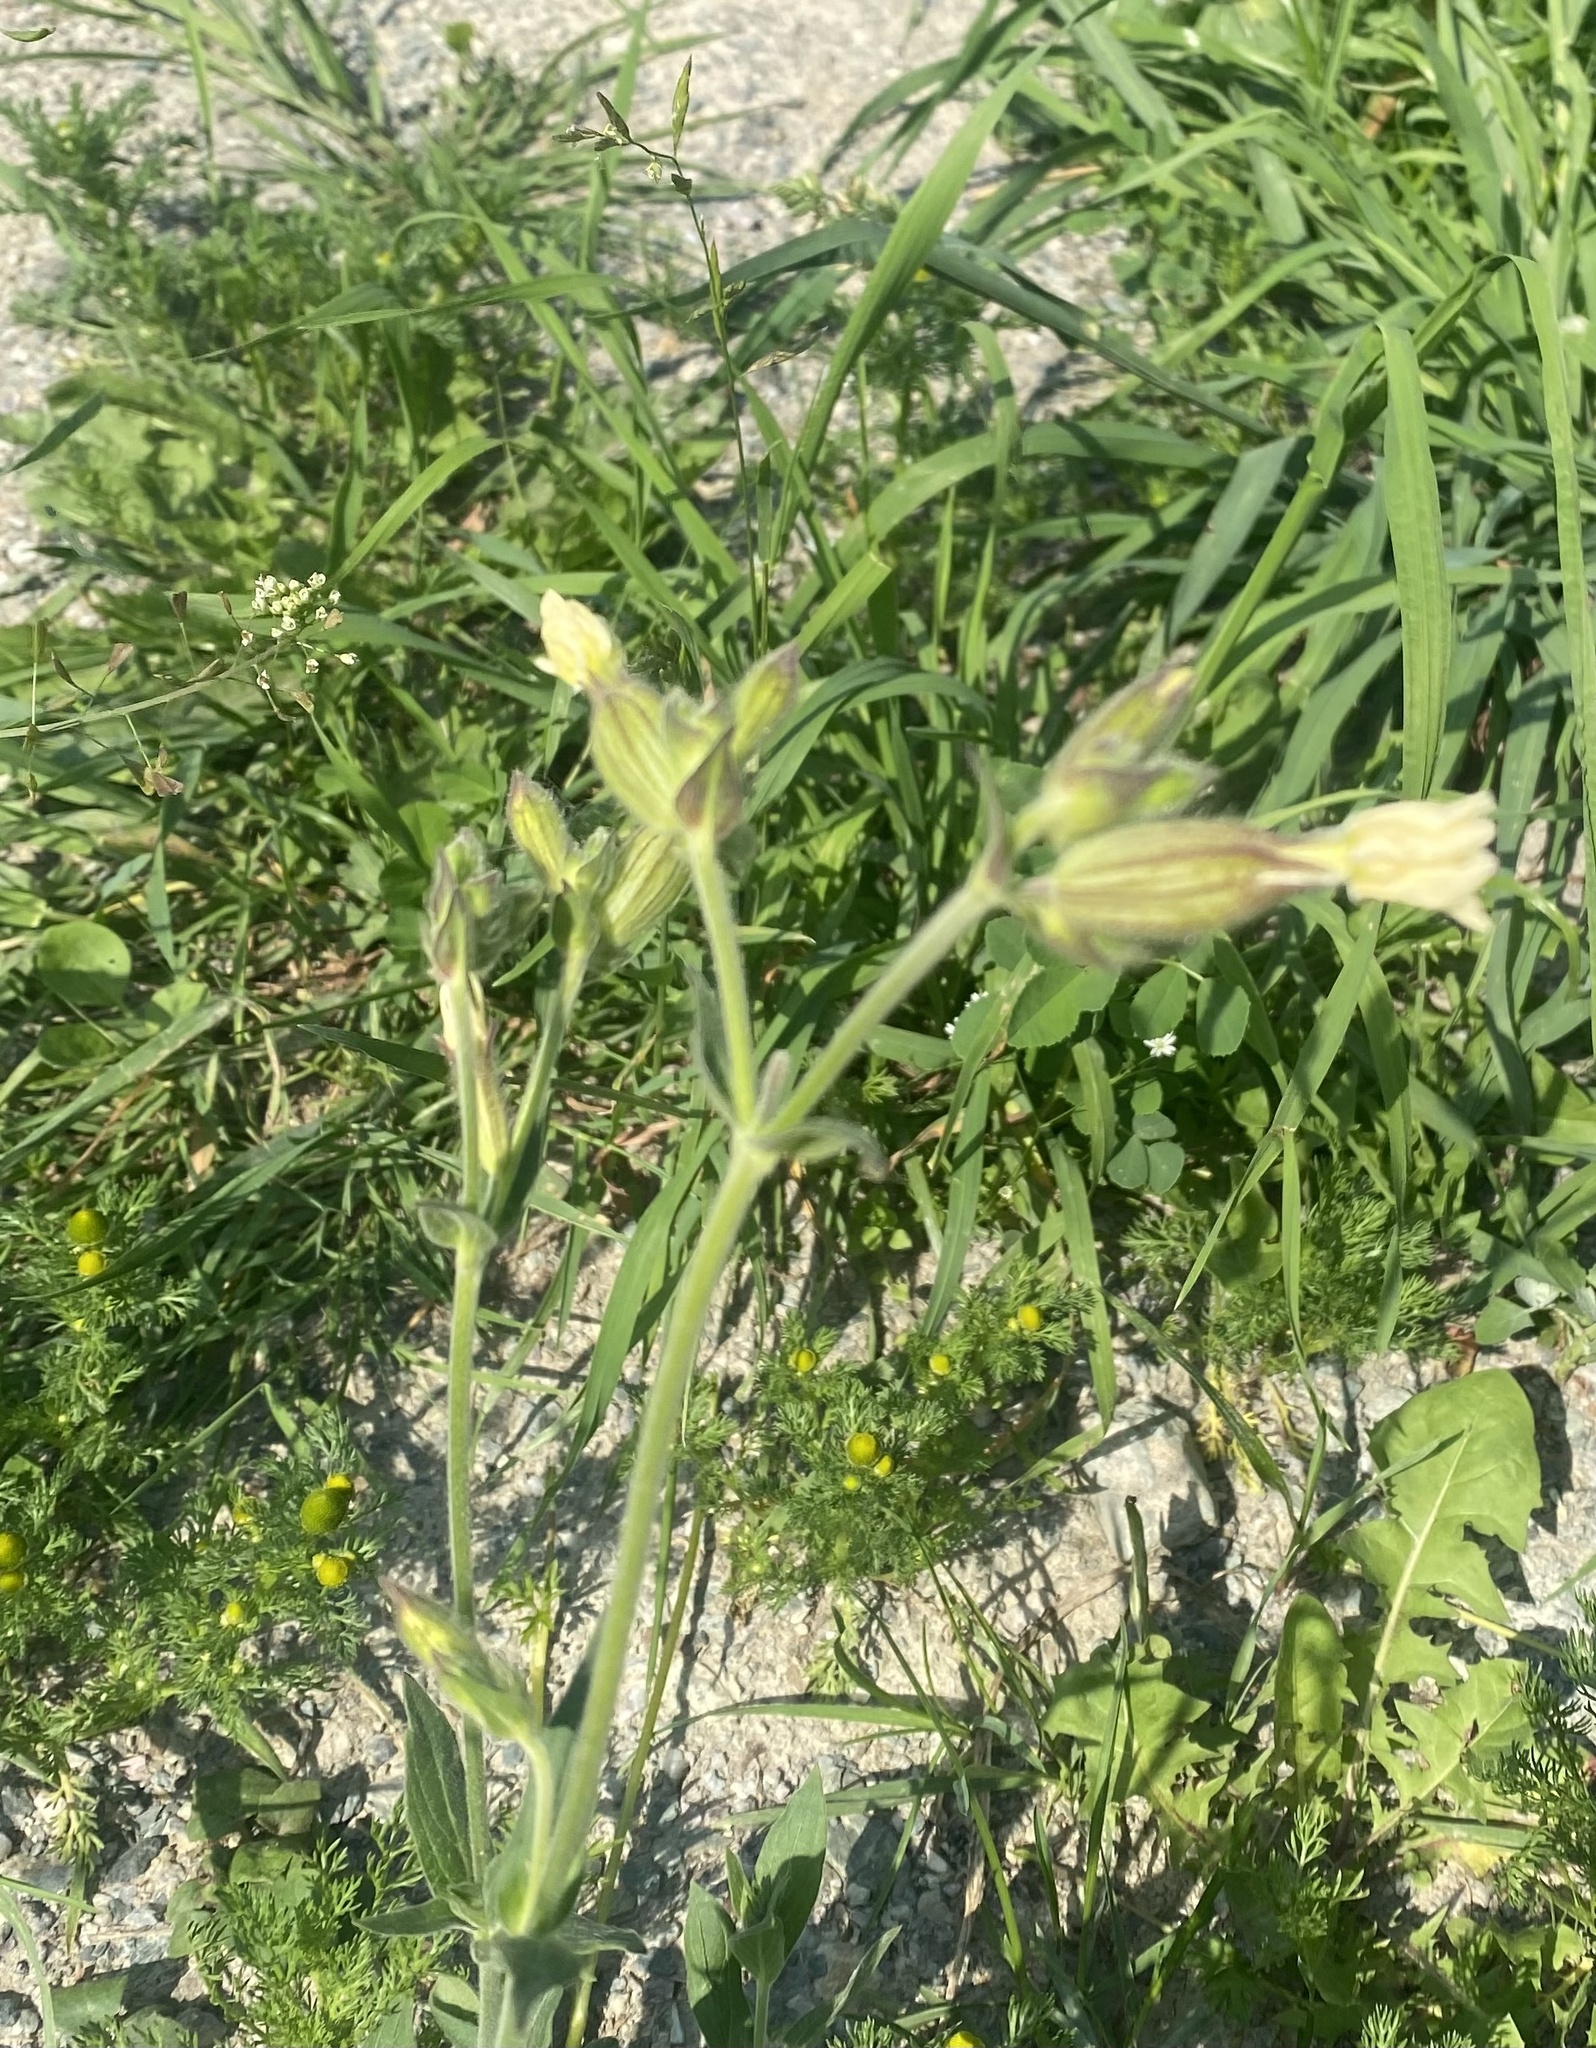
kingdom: Plantae
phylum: Tracheophyta
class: Magnoliopsida
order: Caryophyllales
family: Caryophyllaceae
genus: Silene
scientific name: Silene latifolia
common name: White campion
